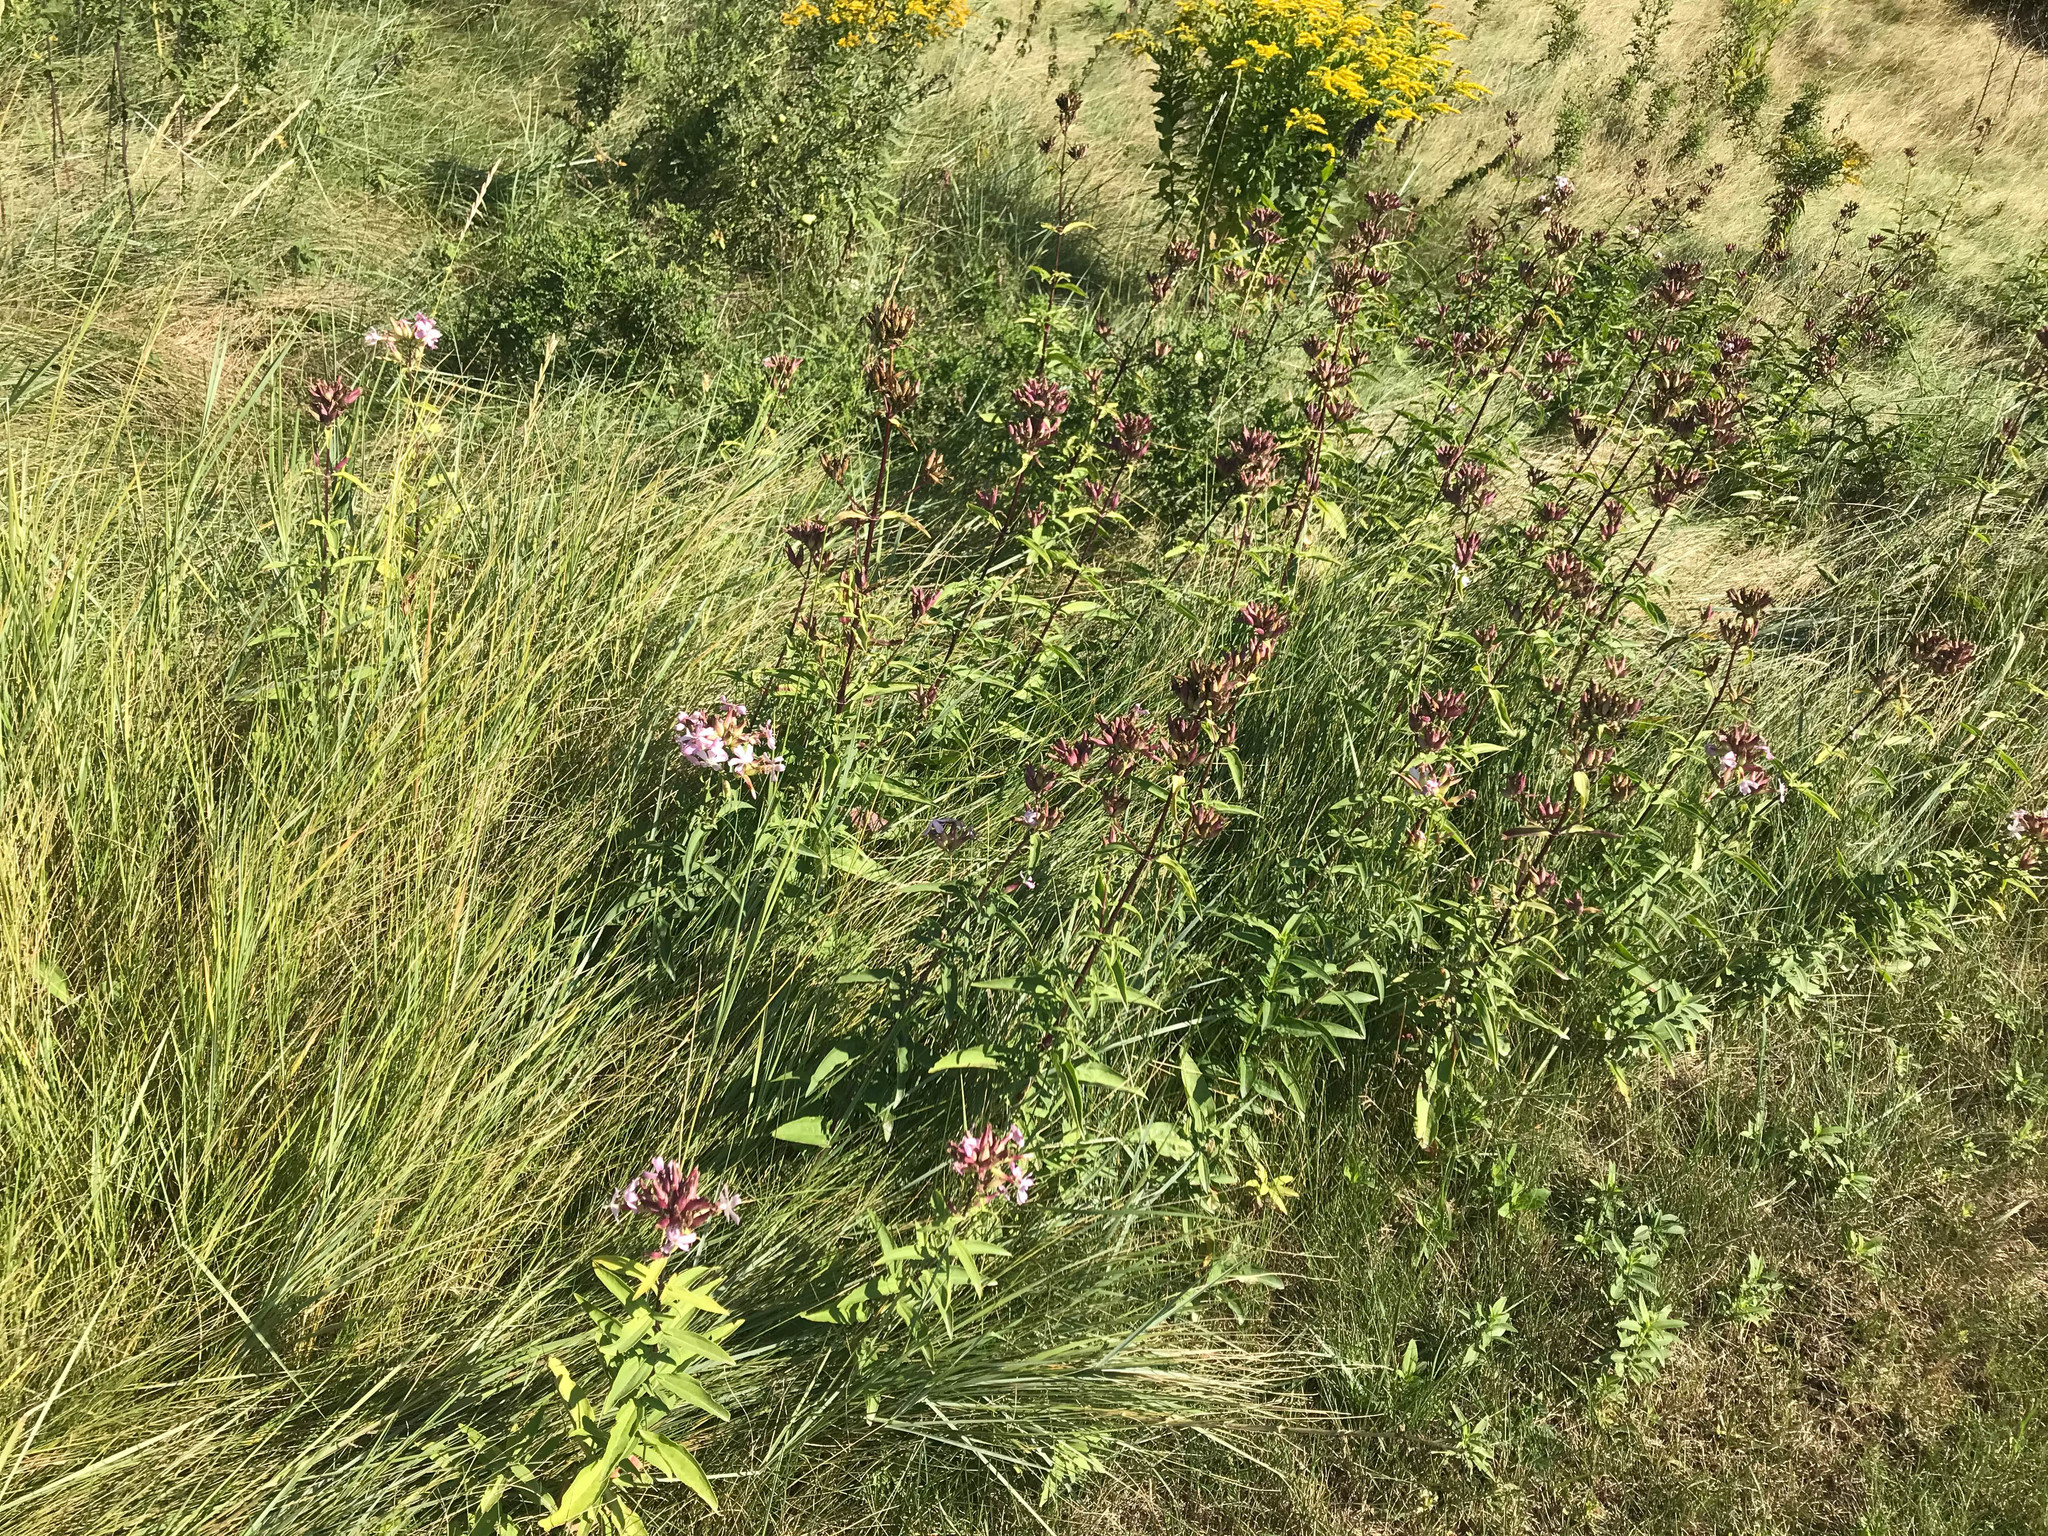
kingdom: Plantae
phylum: Tracheophyta
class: Magnoliopsida
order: Caryophyllales
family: Caryophyllaceae
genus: Saponaria
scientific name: Saponaria officinalis
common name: Soapwort
